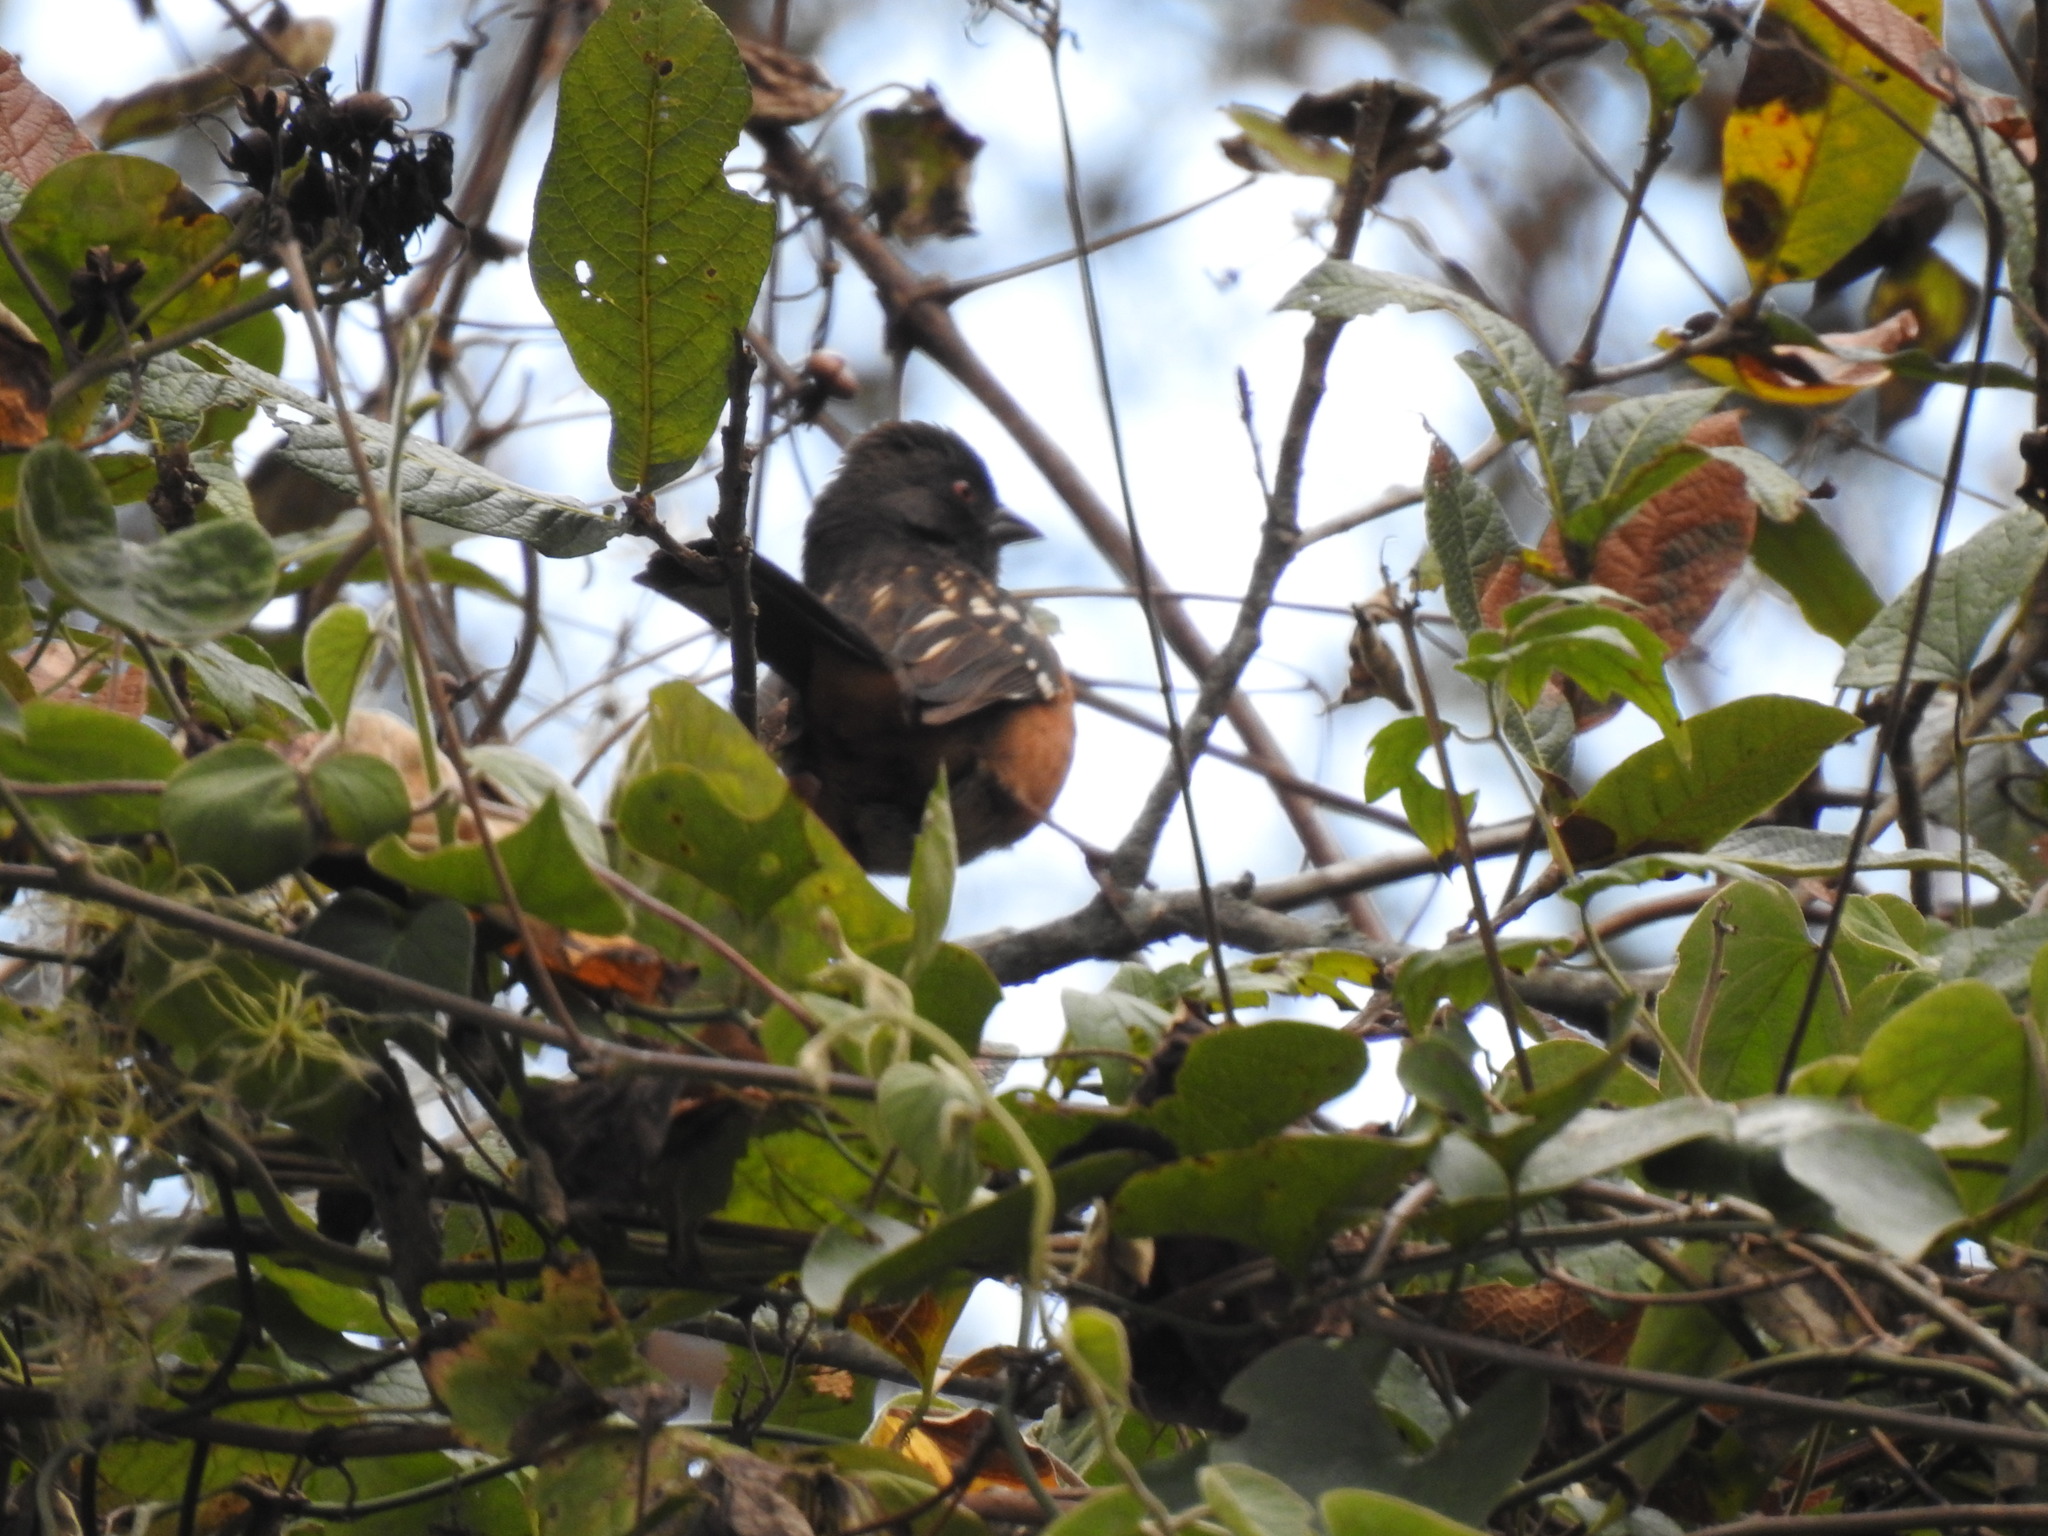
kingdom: Animalia
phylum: Chordata
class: Aves
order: Passeriformes
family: Passerellidae
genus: Pipilo
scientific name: Pipilo maculatus
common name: Spotted towhee
